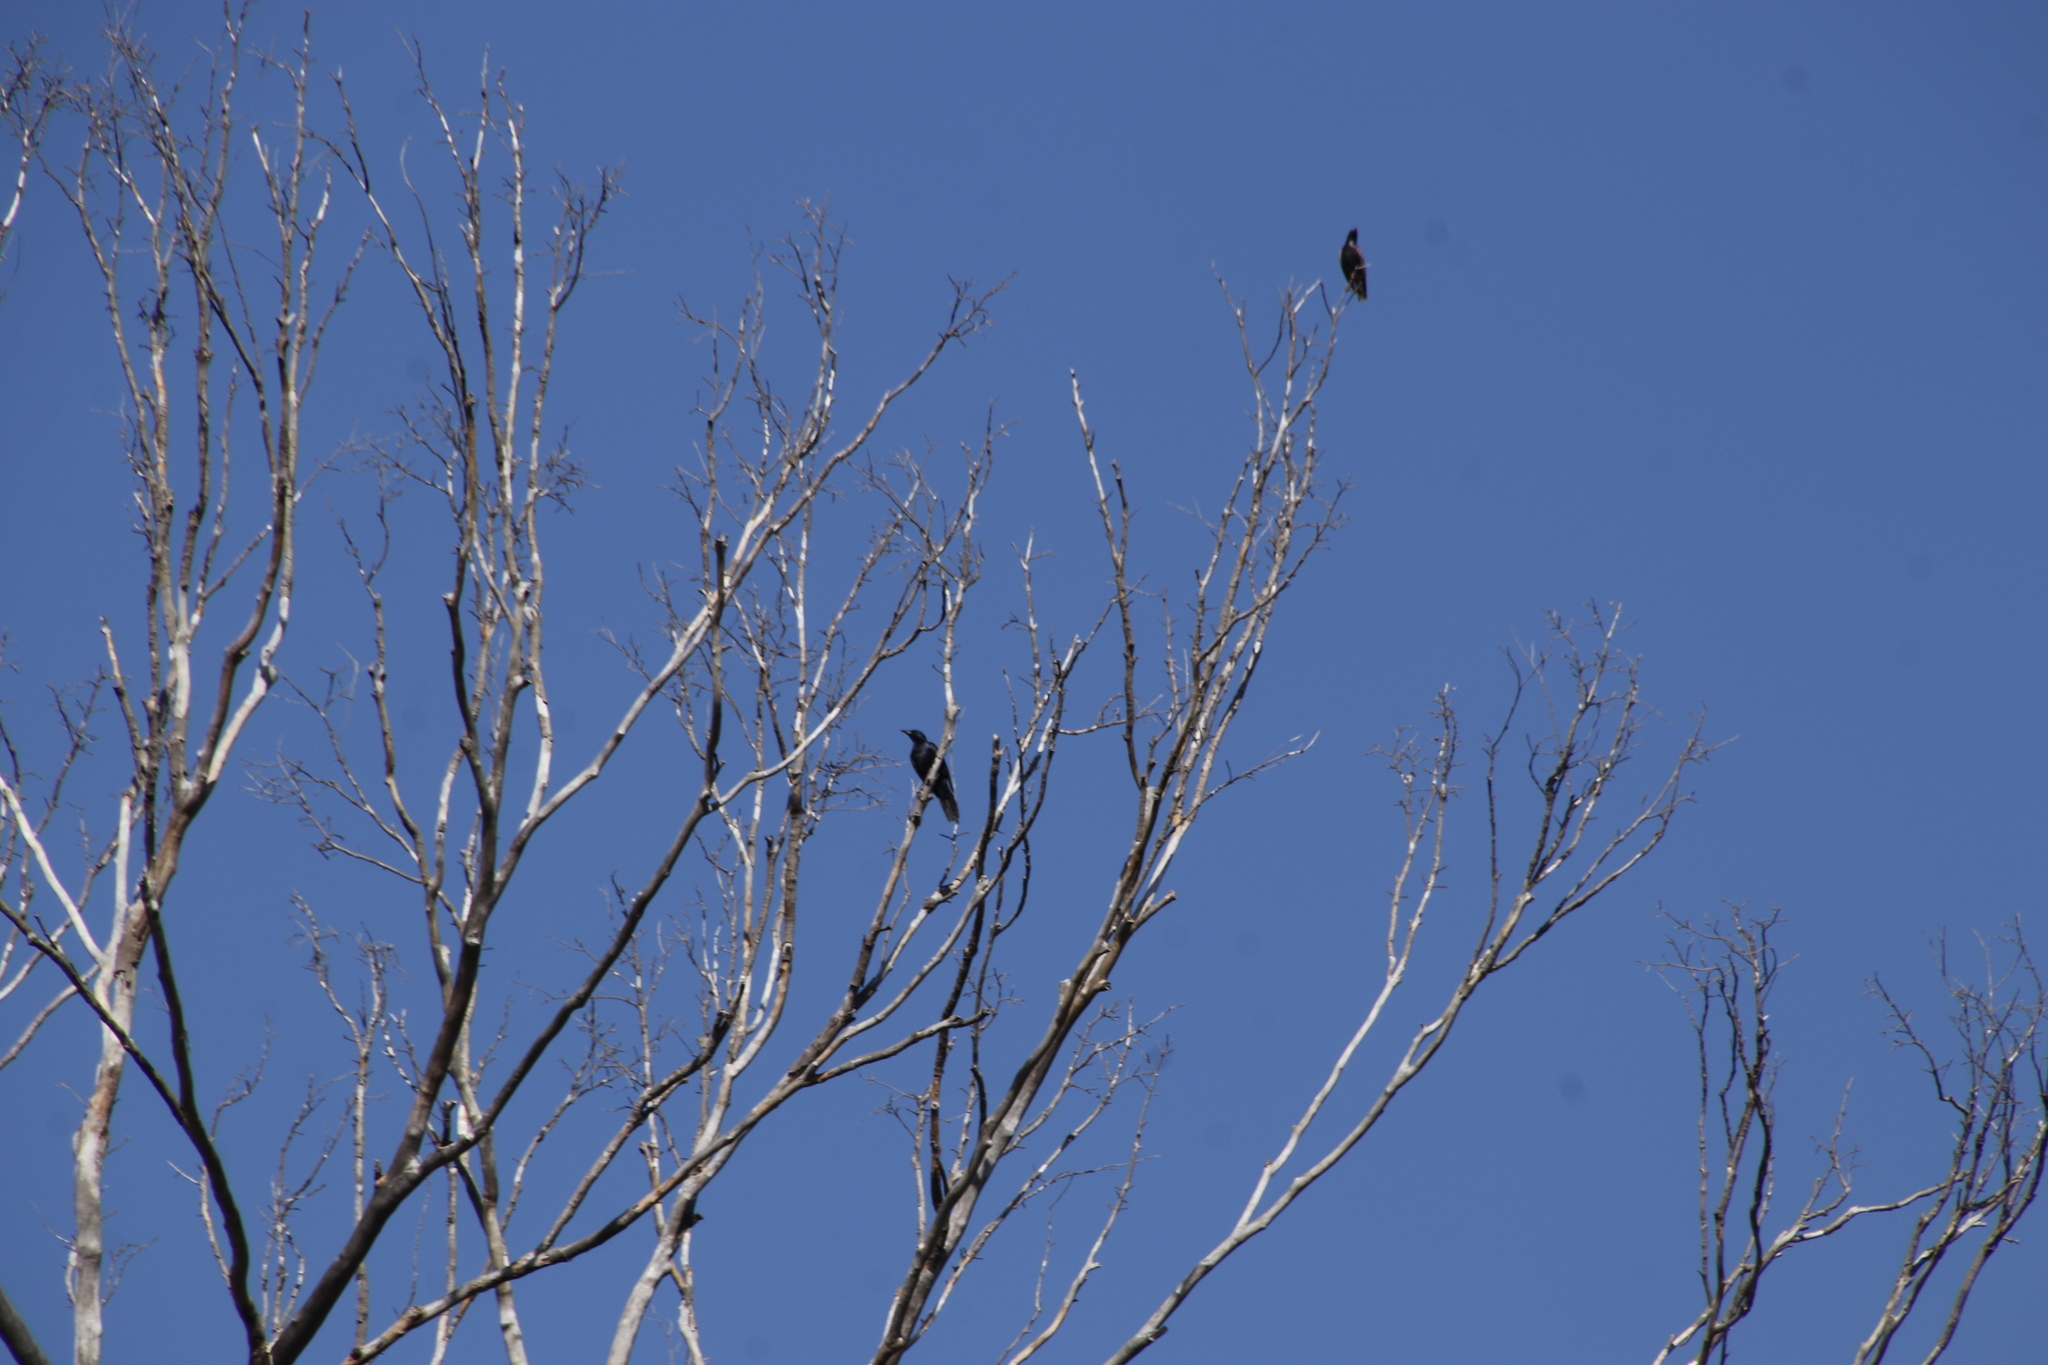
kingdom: Animalia
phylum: Chordata
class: Aves
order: Passeriformes
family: Sturnidae
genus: Onychognathus
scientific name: Onychognathus morio
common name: Red-winged starling
